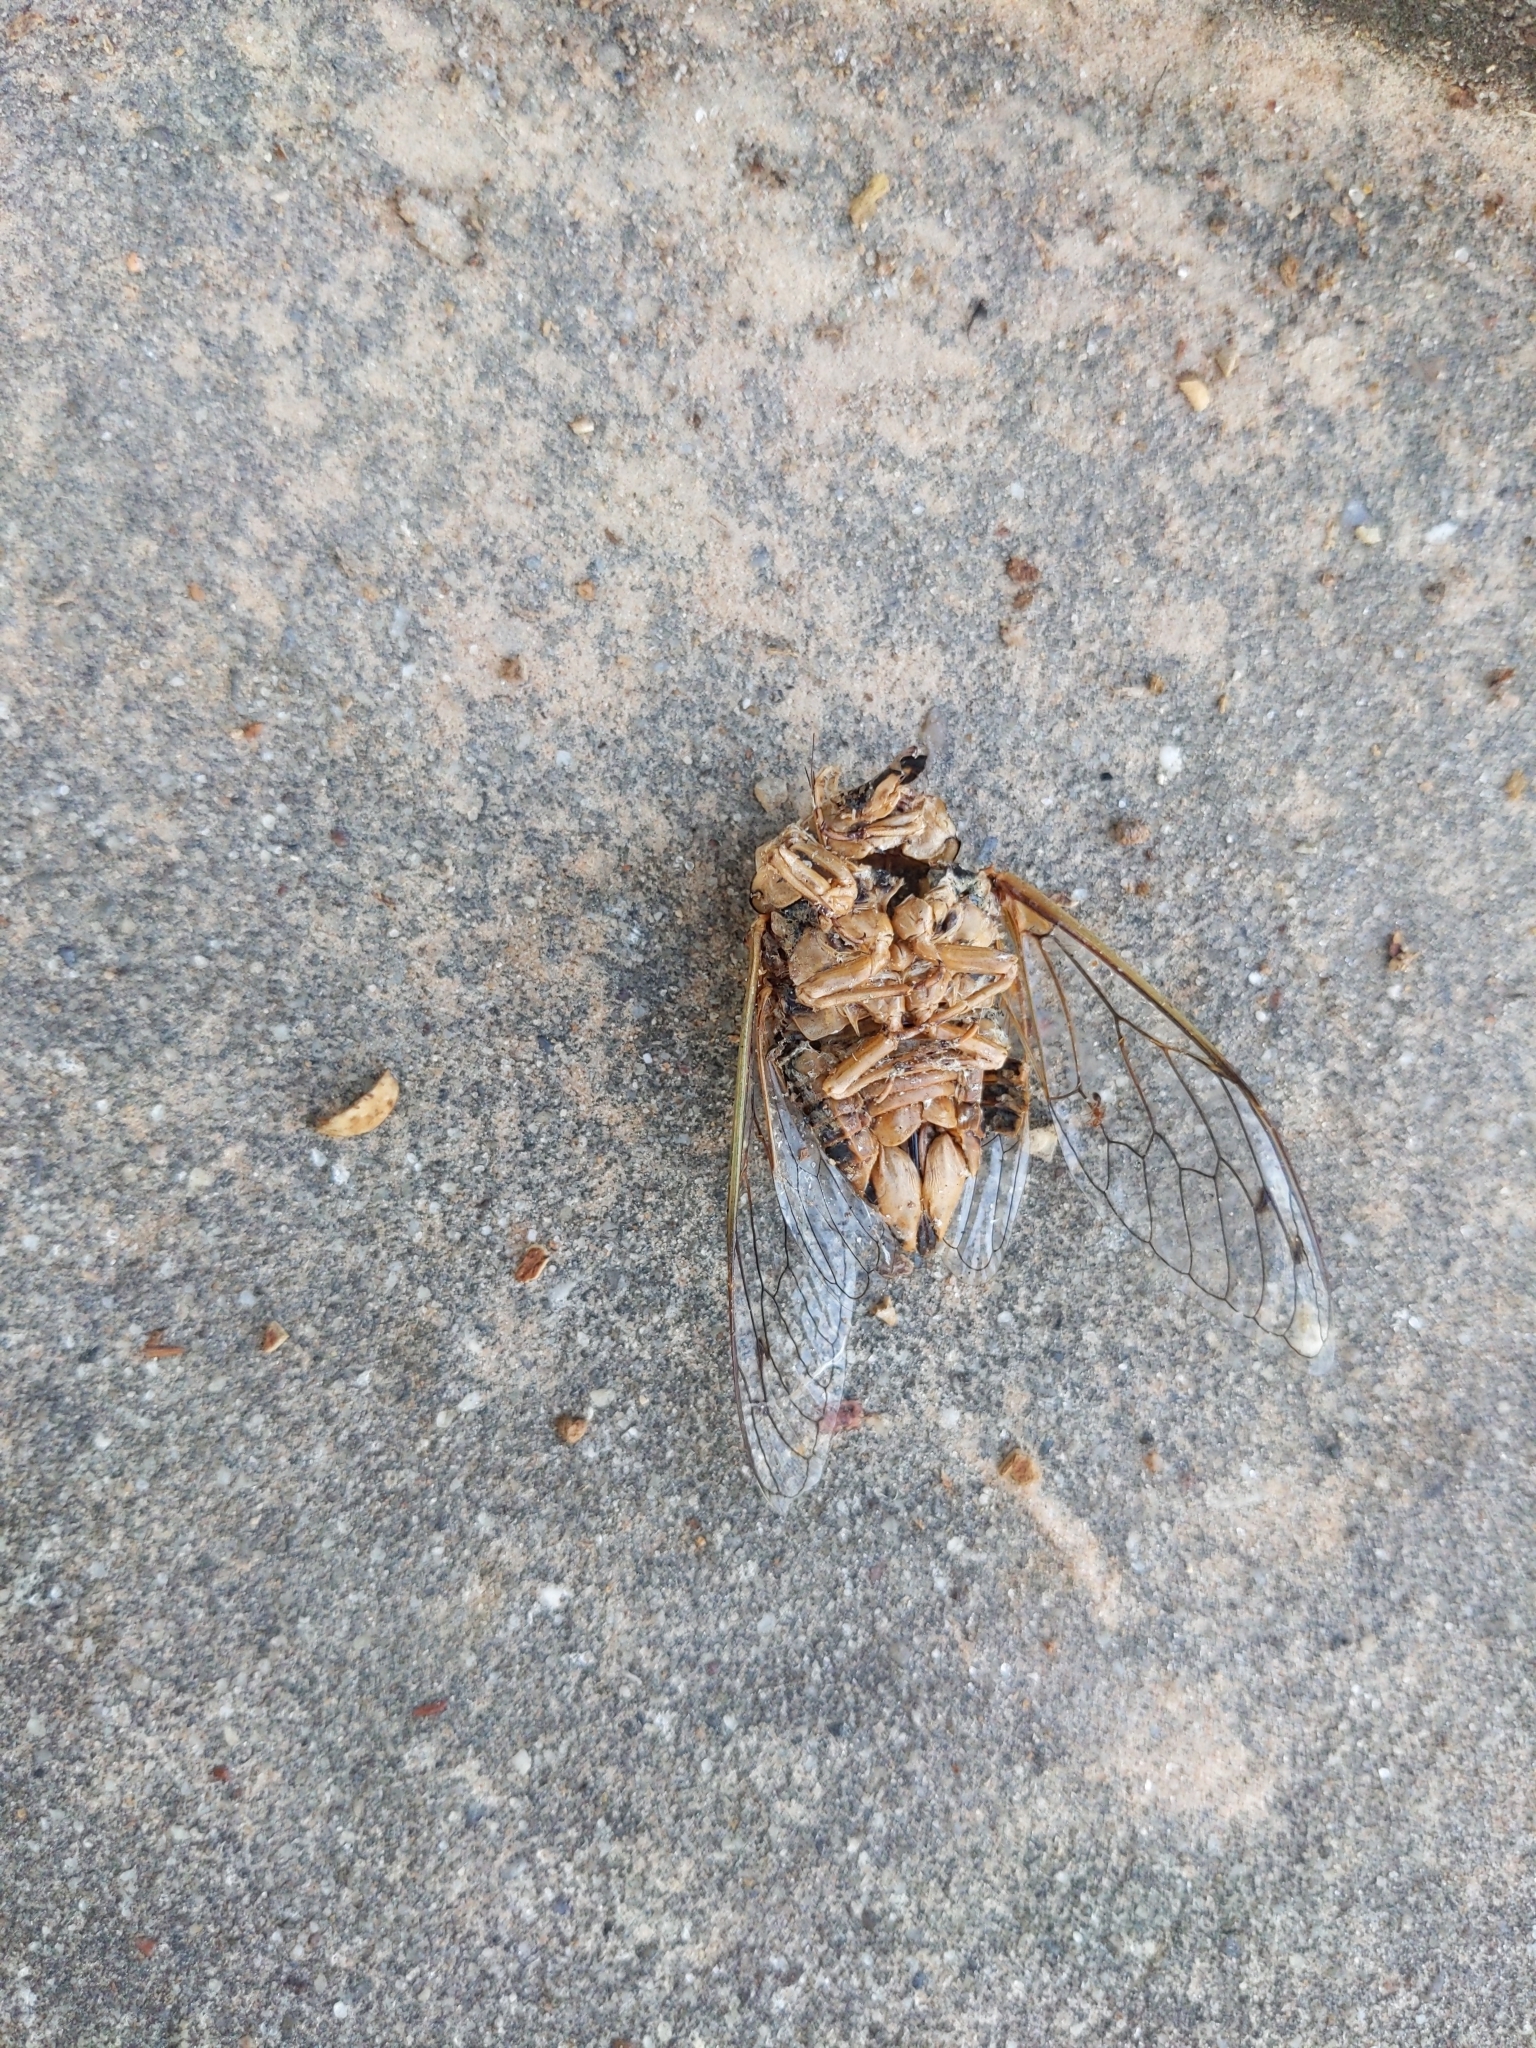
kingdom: Animalia
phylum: Arthropoda
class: Insecta
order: Hemiptera
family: Cicadidae
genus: Megatibicen
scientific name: Megatibicen resh
